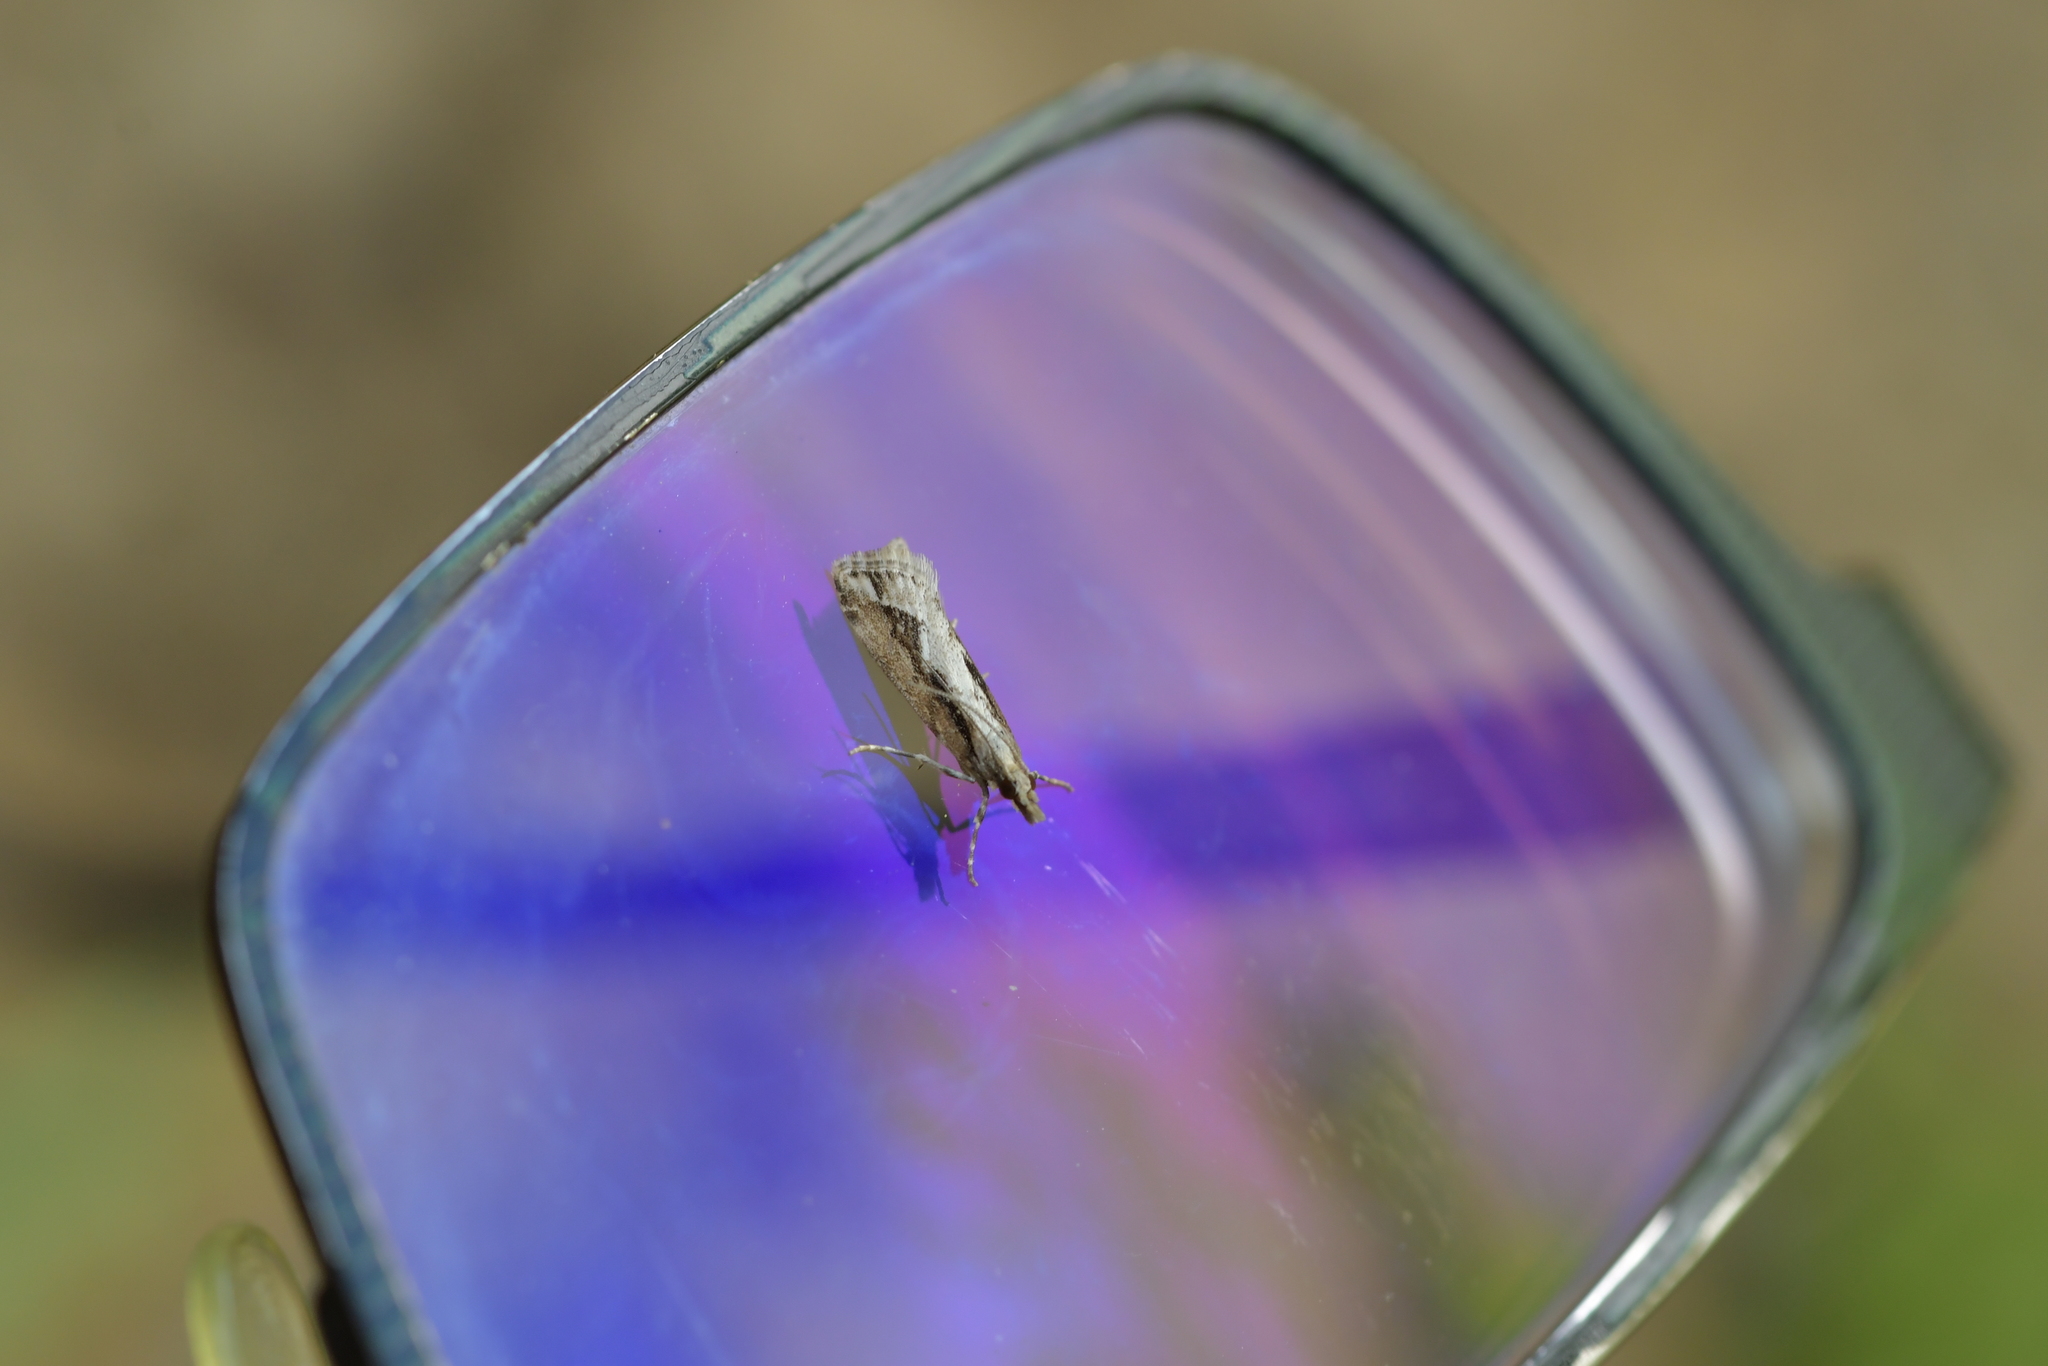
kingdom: Animalia
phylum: Arthropoda
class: Insecta
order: Lepidoptera
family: Crambidae
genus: Eudonia
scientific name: Eudonia steropaea
